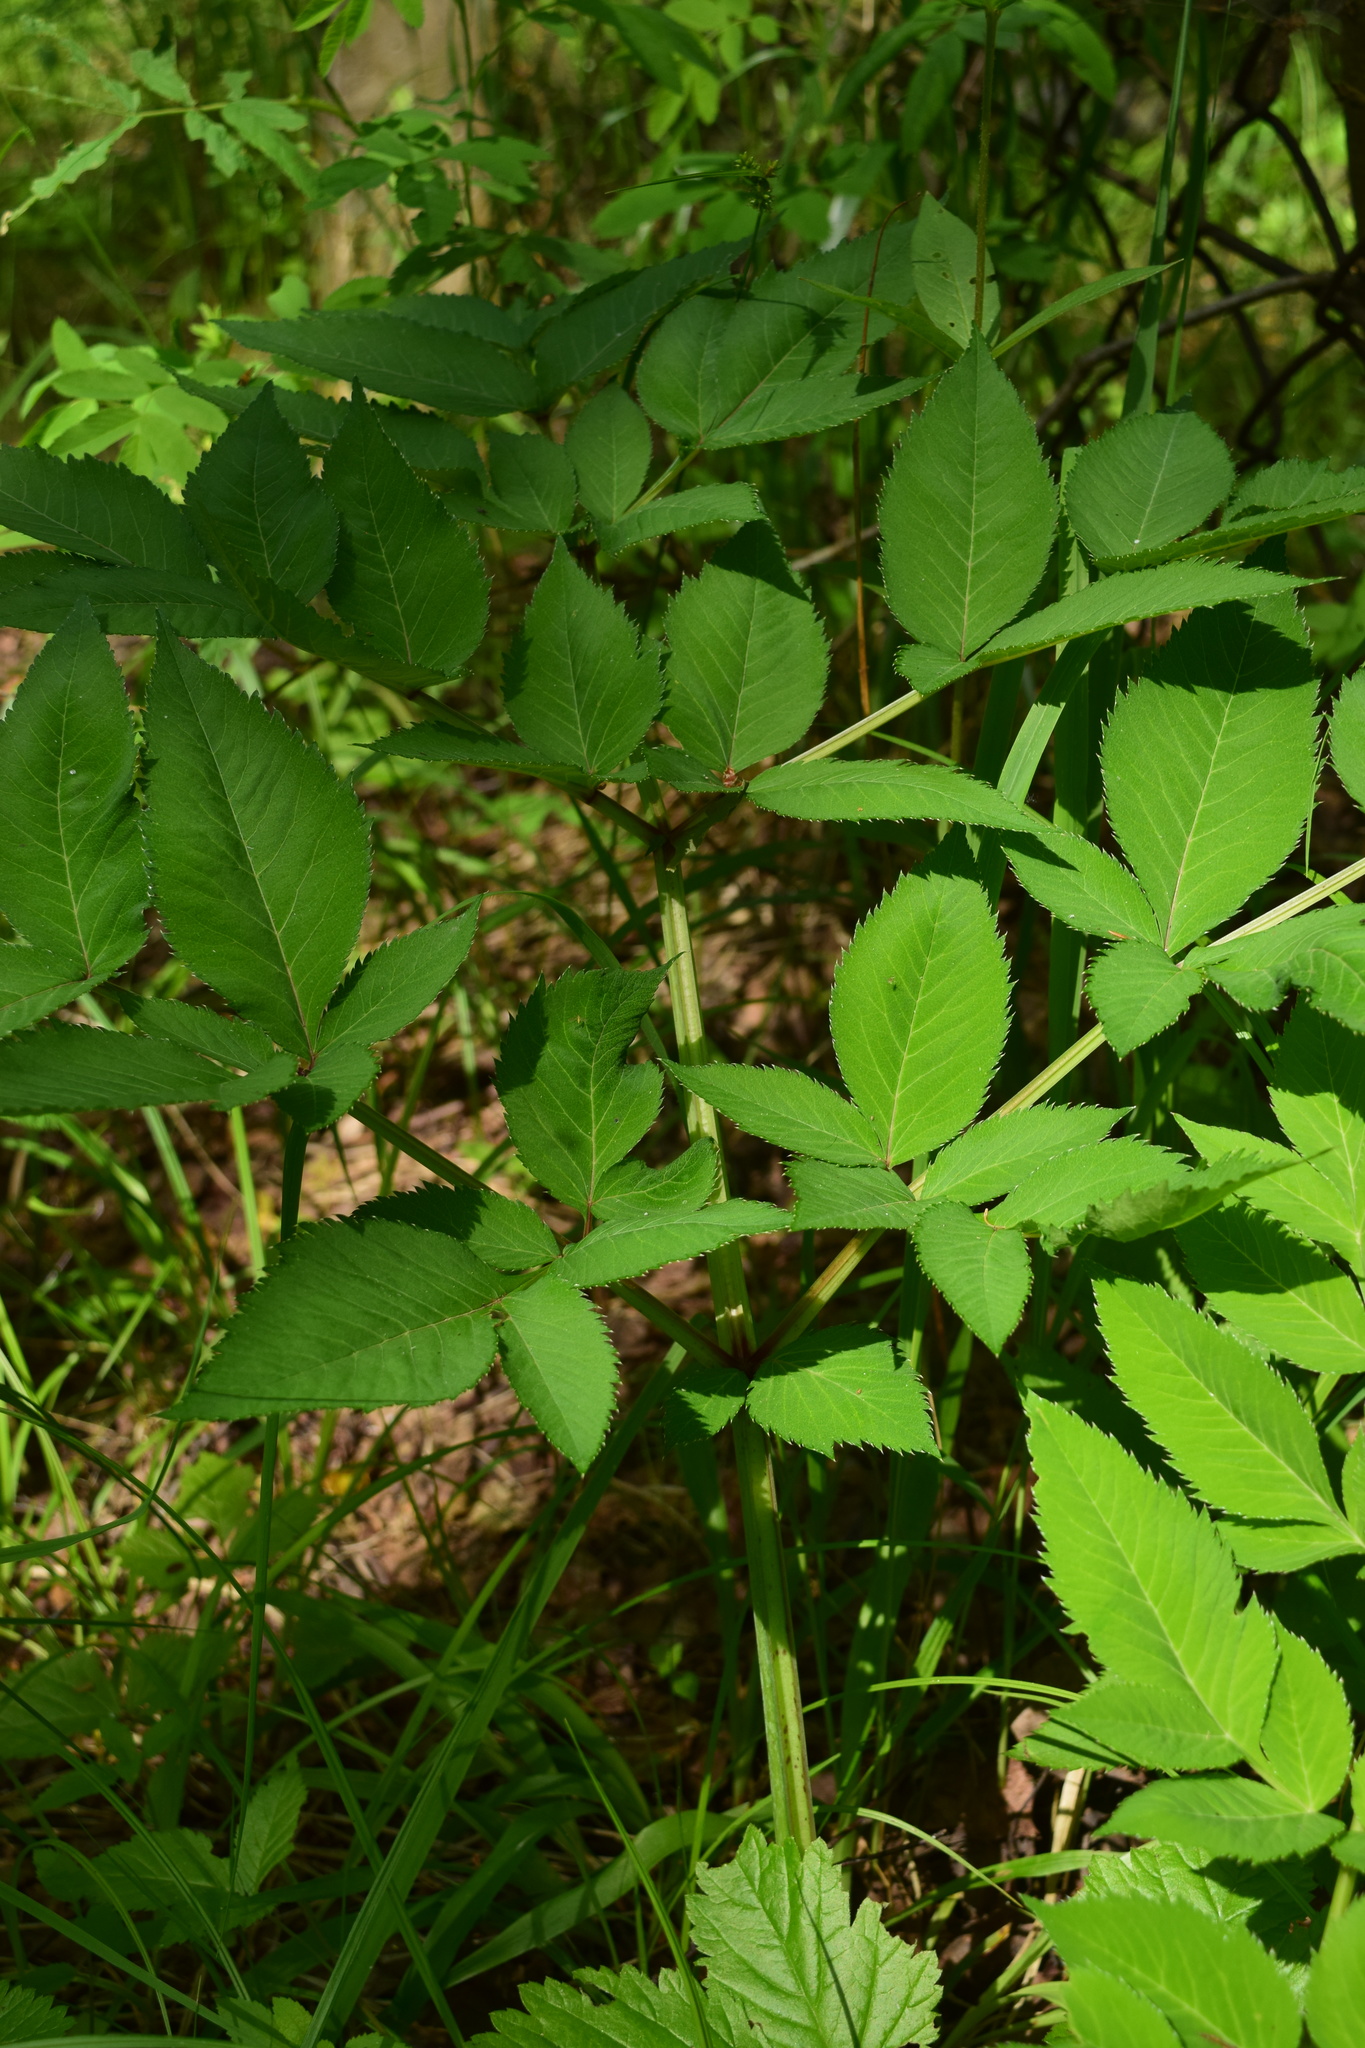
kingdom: Plantae
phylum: Tracheophyta
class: Magnoliopsida
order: Apiales
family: Apiaceae
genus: Angelica
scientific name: Angelica sylvestris
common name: Wild angelica
